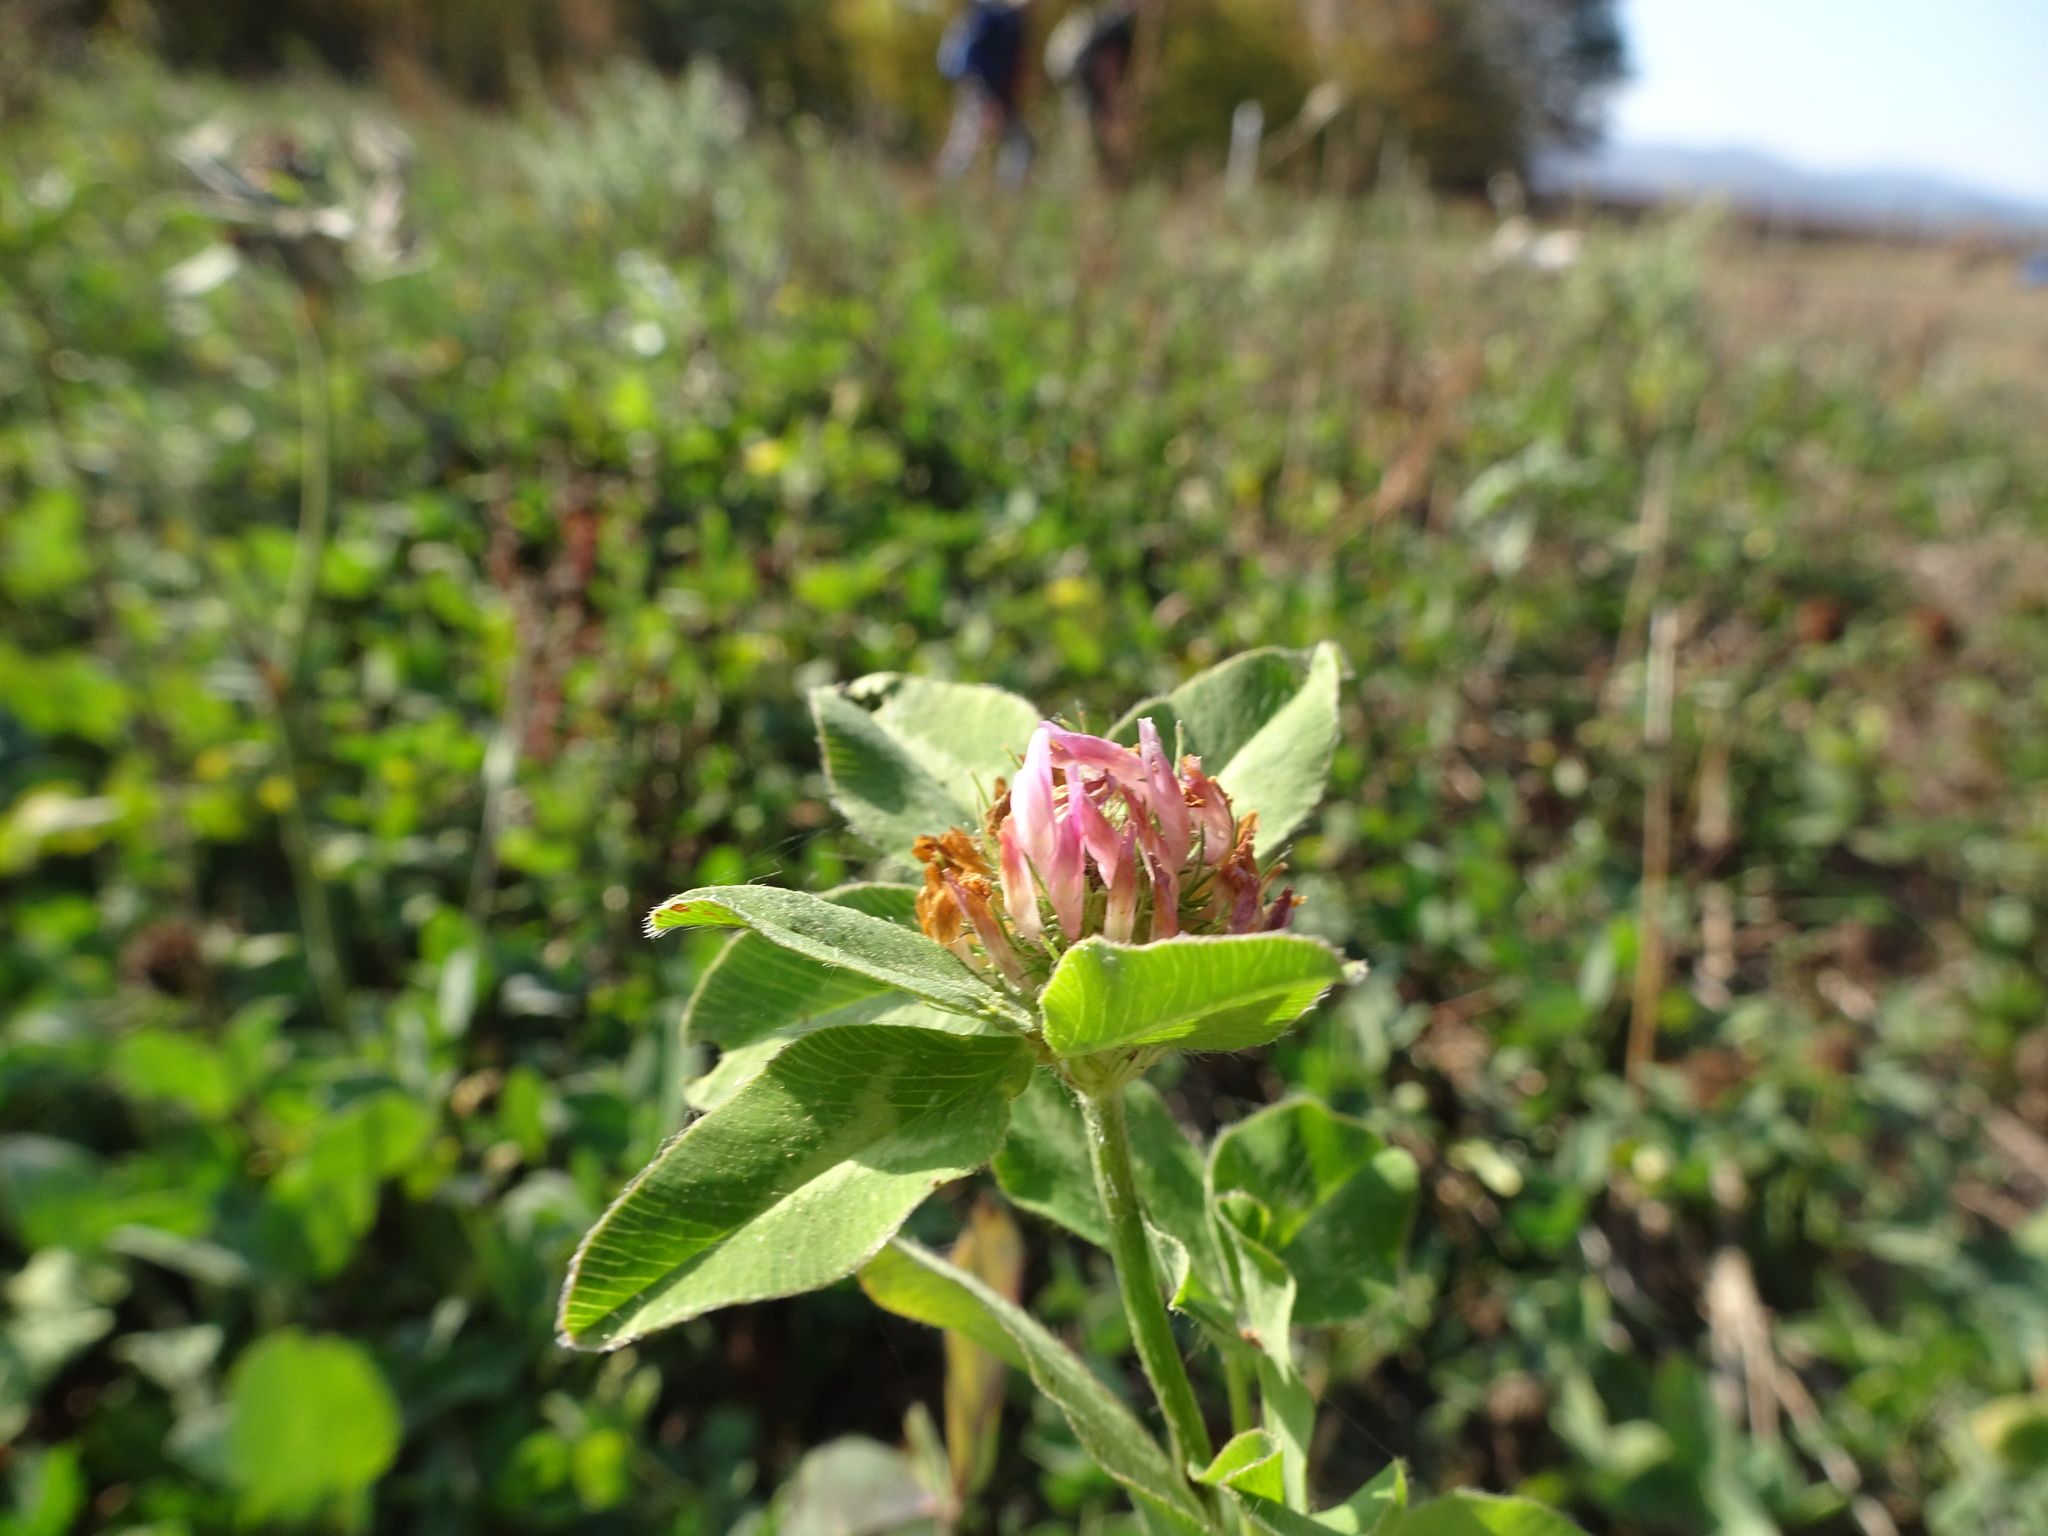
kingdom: Plantae
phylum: Tracheophyta
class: Magnoliopsida
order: Fabales
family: Fabaceae
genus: Trifolium
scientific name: Trifolium pratense
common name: Red clover
